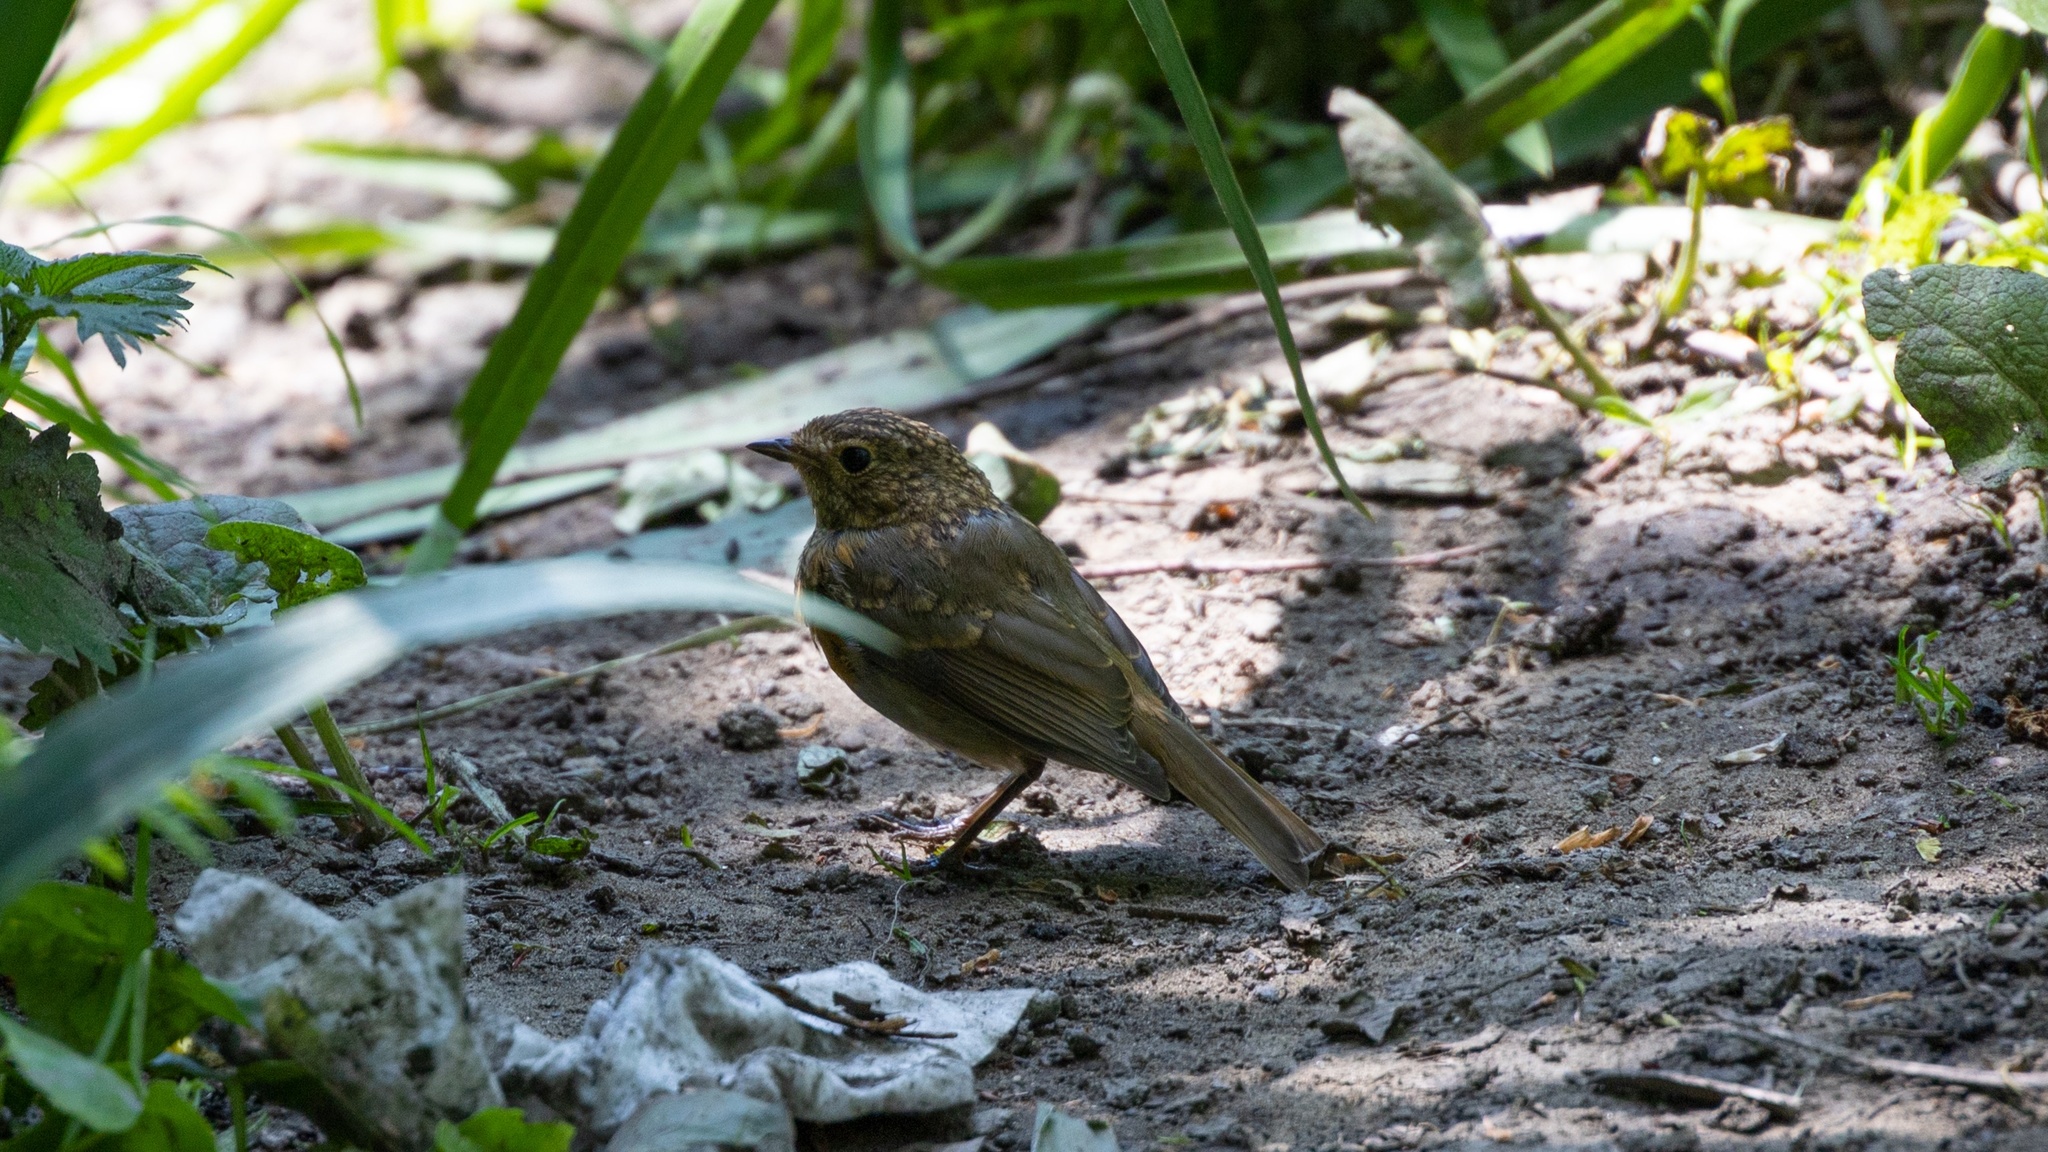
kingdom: Animalia
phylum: Chordata
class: Aves
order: Passeriformes
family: Muscicapidae
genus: Erithacus
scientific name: Erithacus rubecula
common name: European robin
